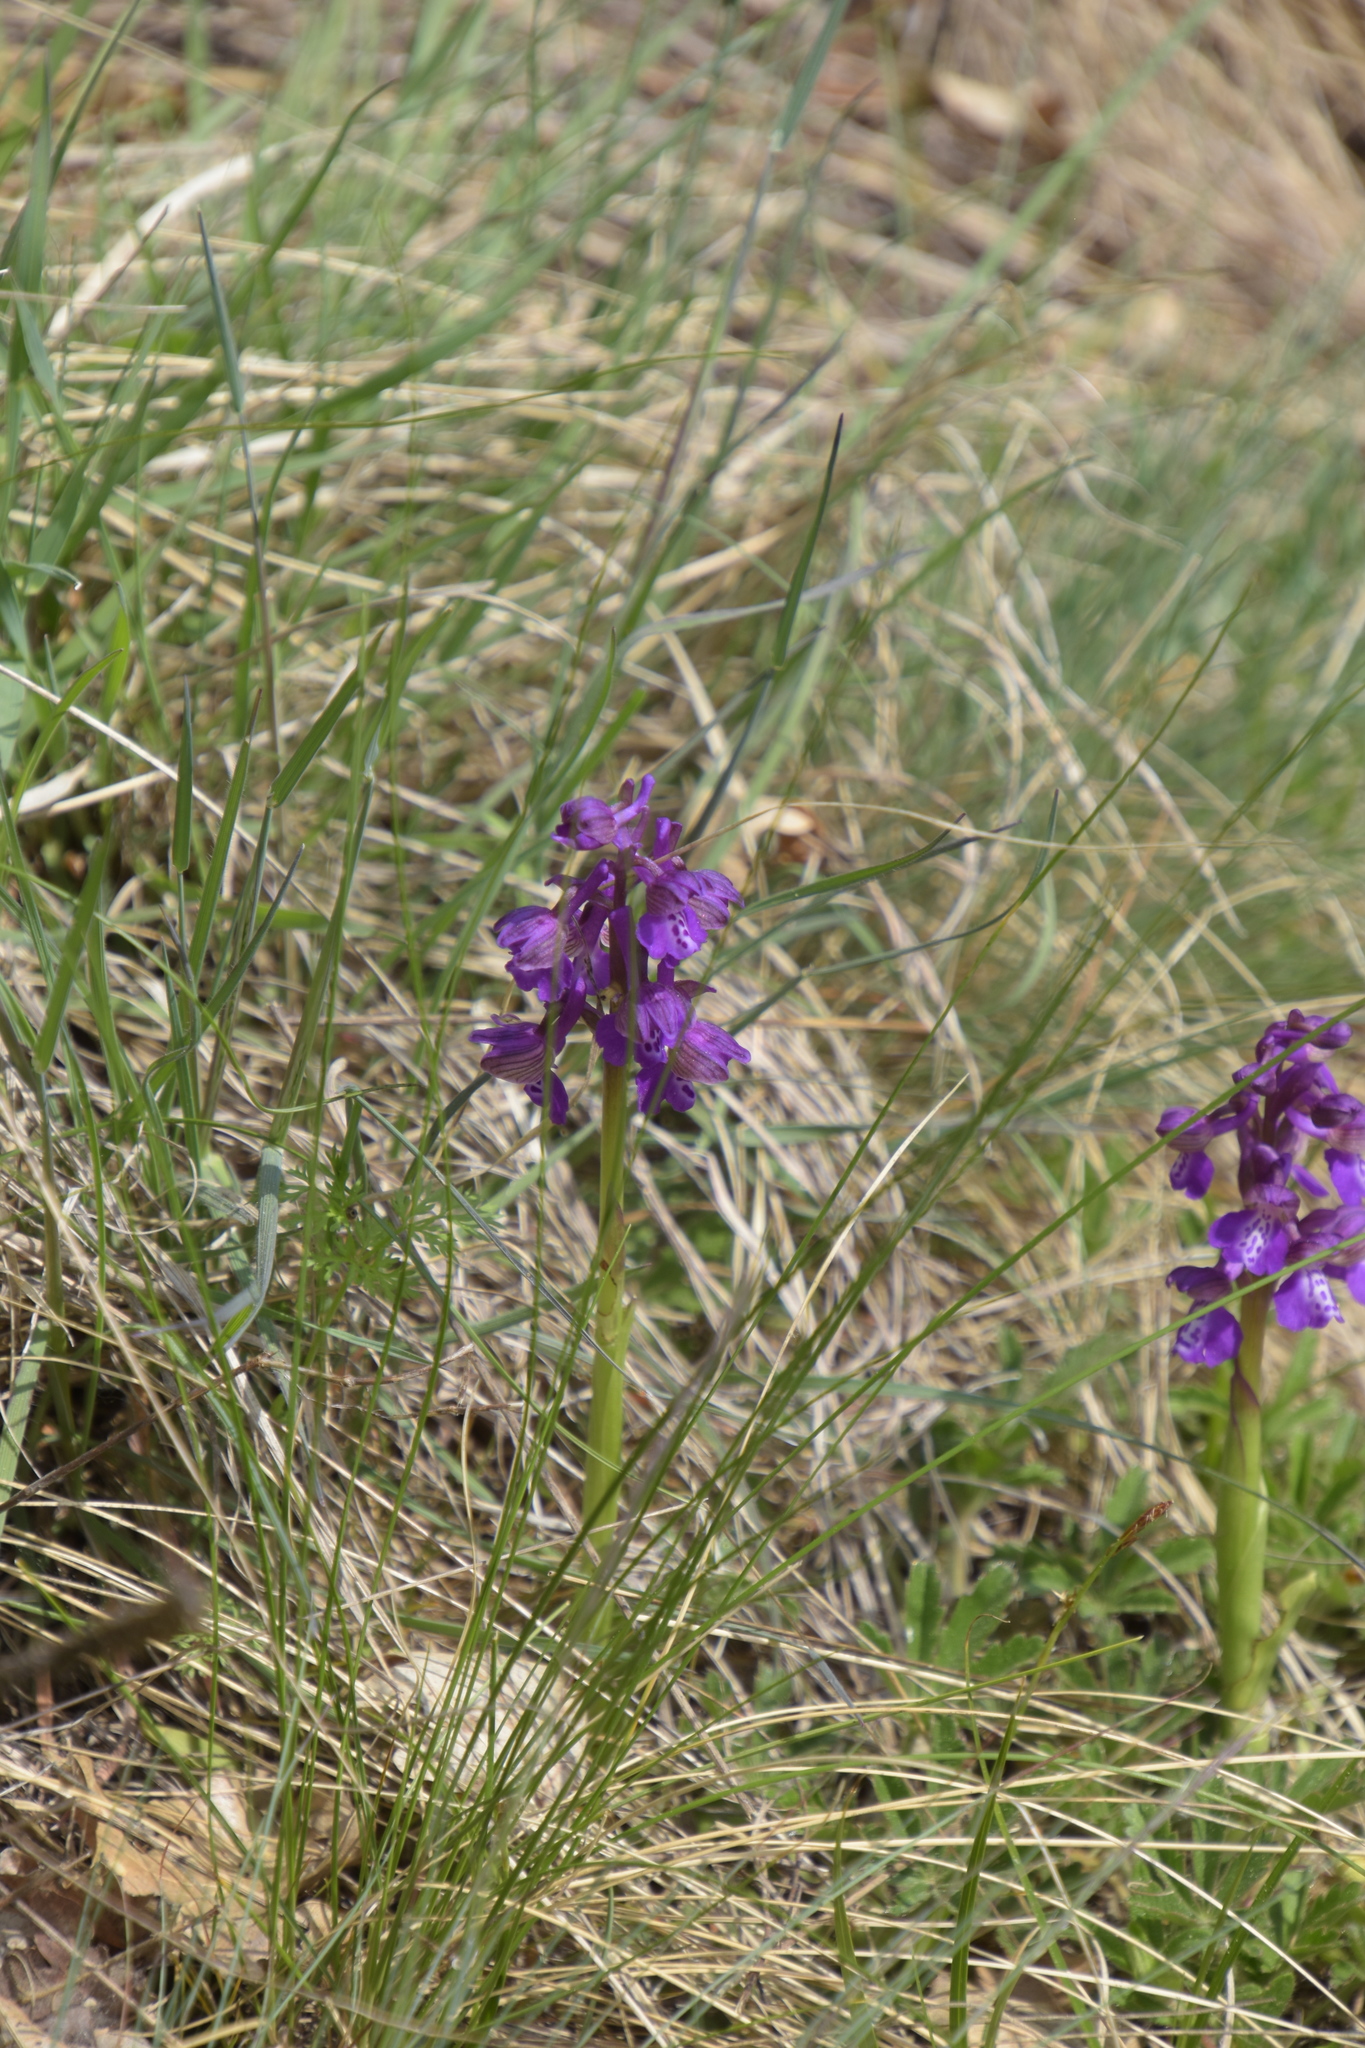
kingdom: Plantae
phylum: Tracheophyta
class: Liliopsida
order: Asparagales
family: Orchidaceae
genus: Anacamptis
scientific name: Anacamptis morio
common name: Green-winged orchid
